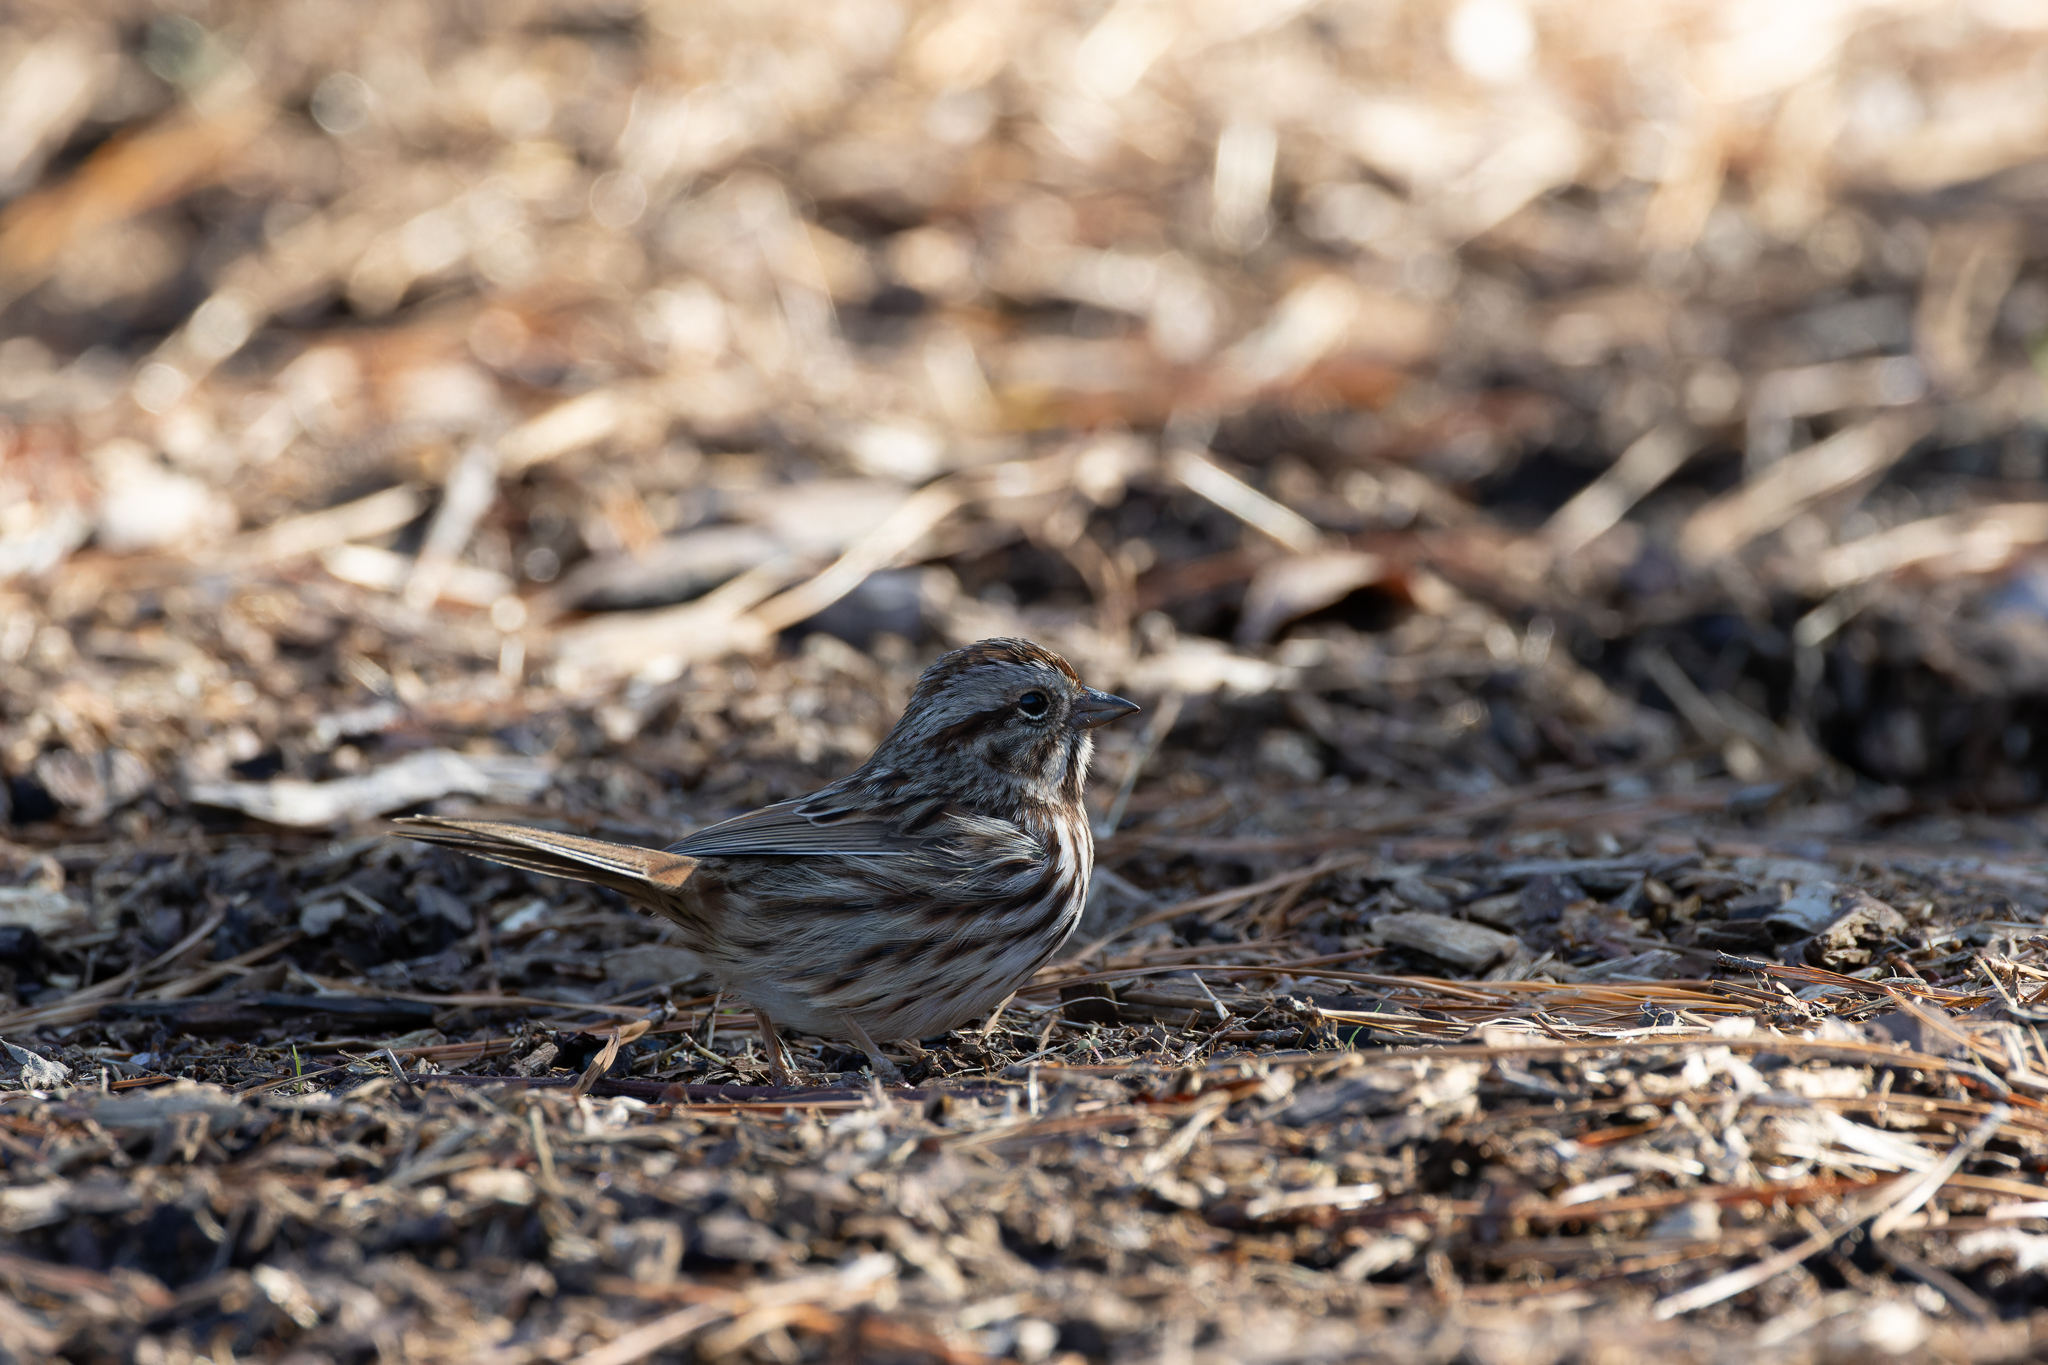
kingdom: Animalia
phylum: Chordata
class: Aves
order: Passeriformes
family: Passerellidae
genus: Melospiza
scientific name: Melospiza melodia
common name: Song sparrow
